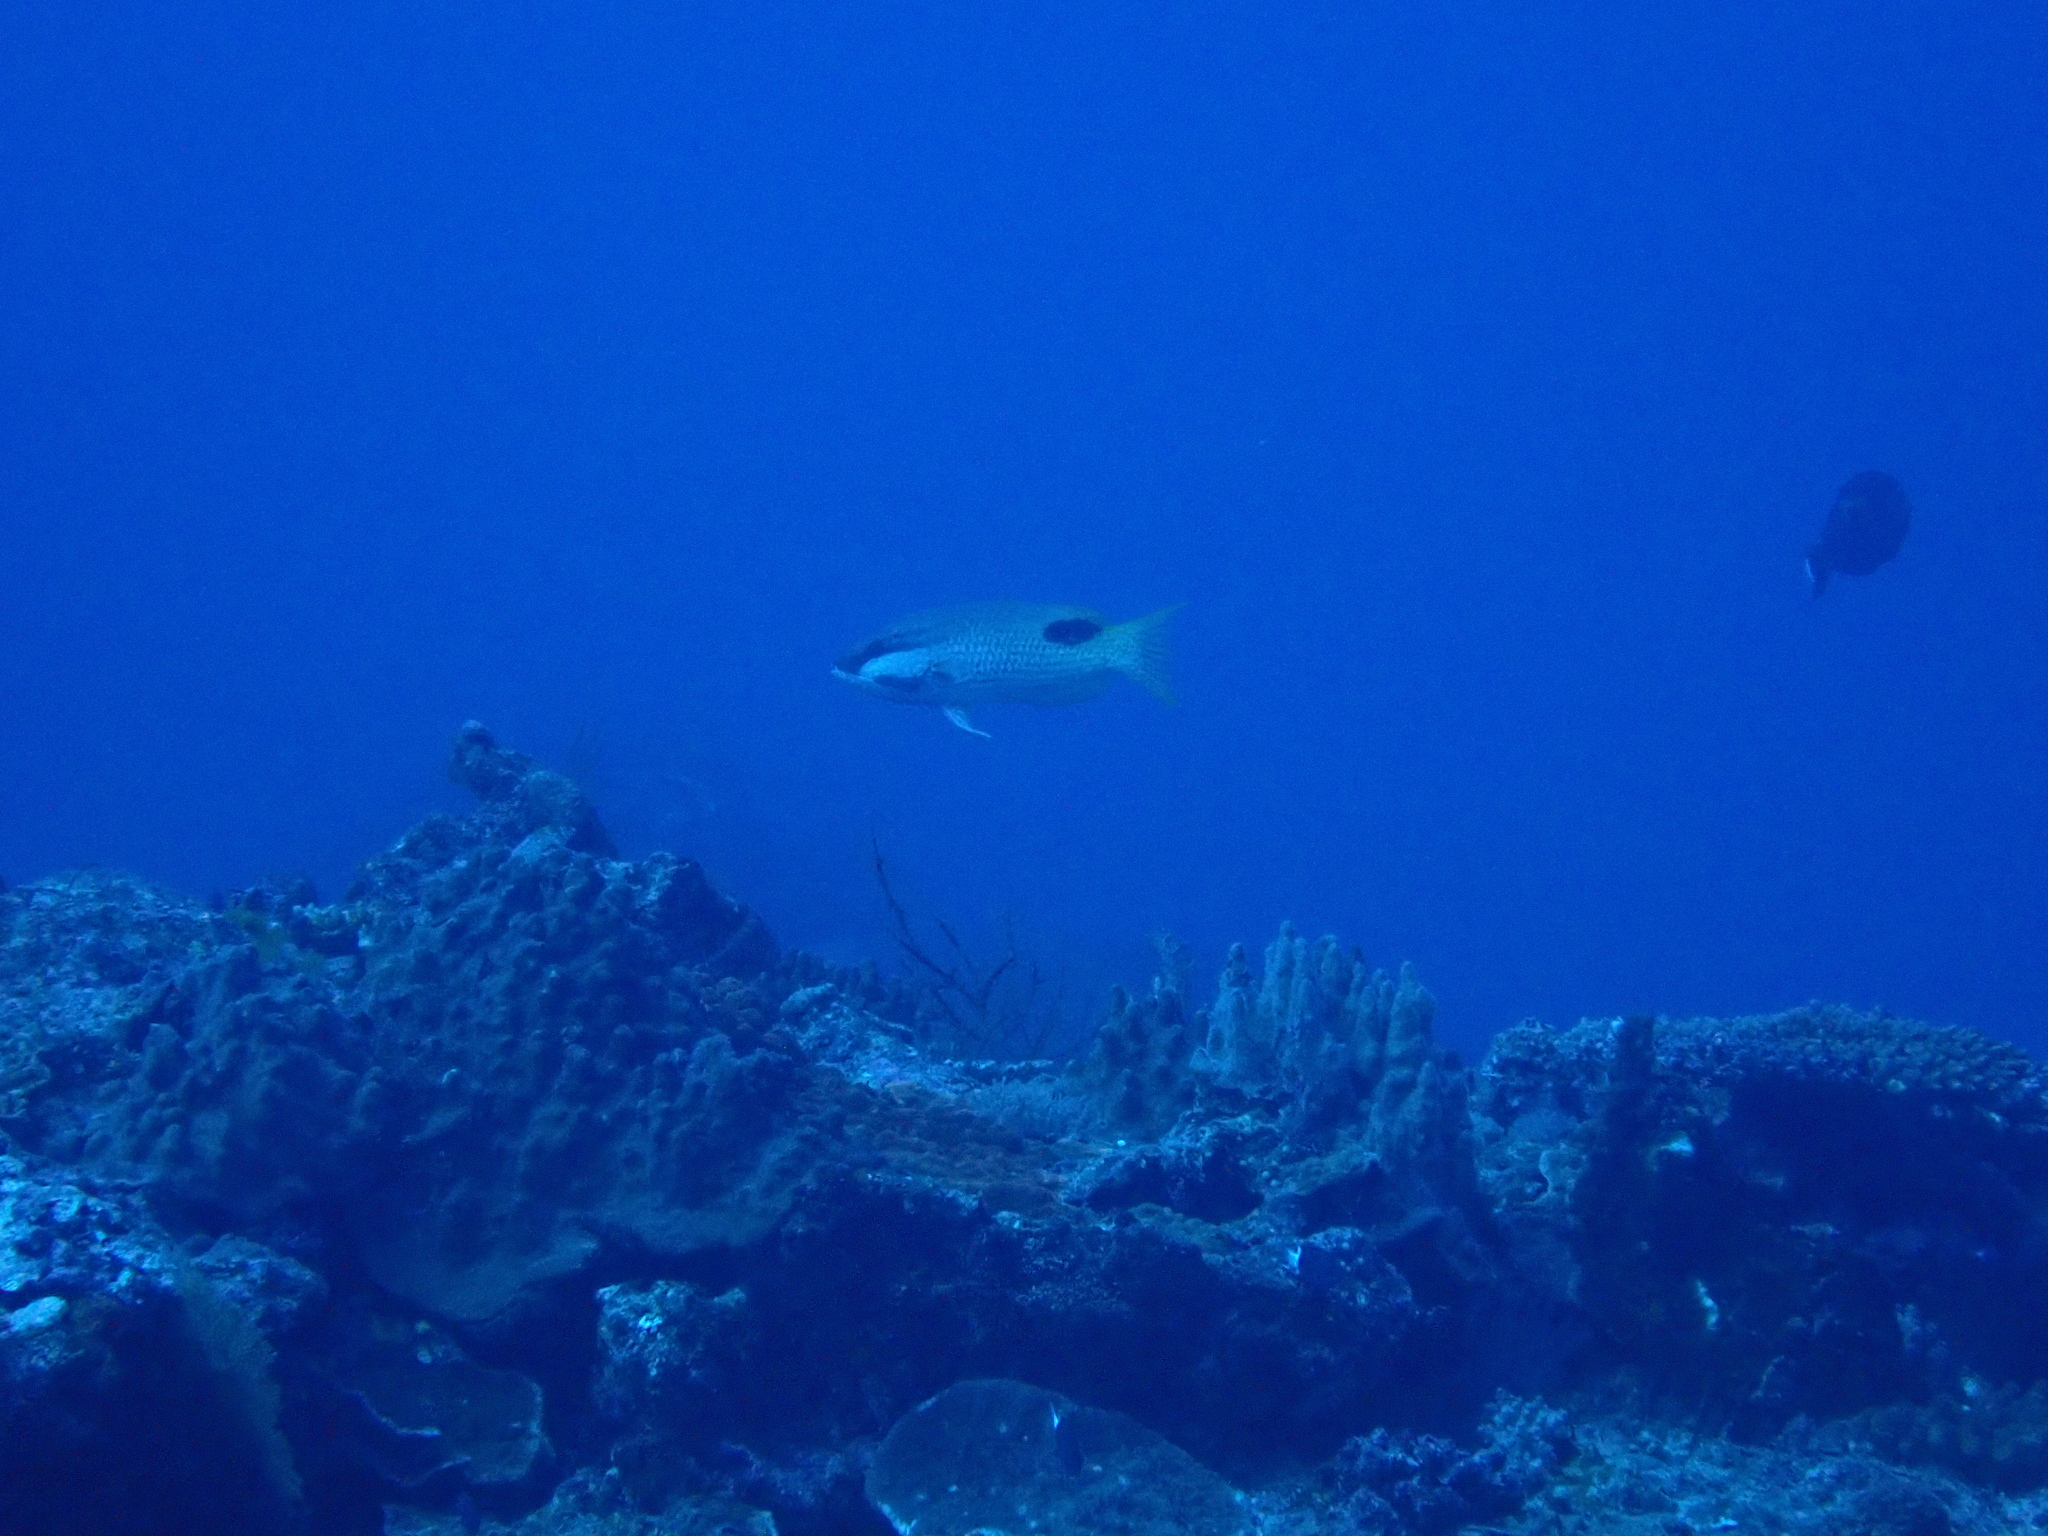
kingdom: Animalia
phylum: Chordata
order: Perciformes
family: Labridae
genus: Bodianus
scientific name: Bodianus bilunulatus
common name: Tarry hogfish
